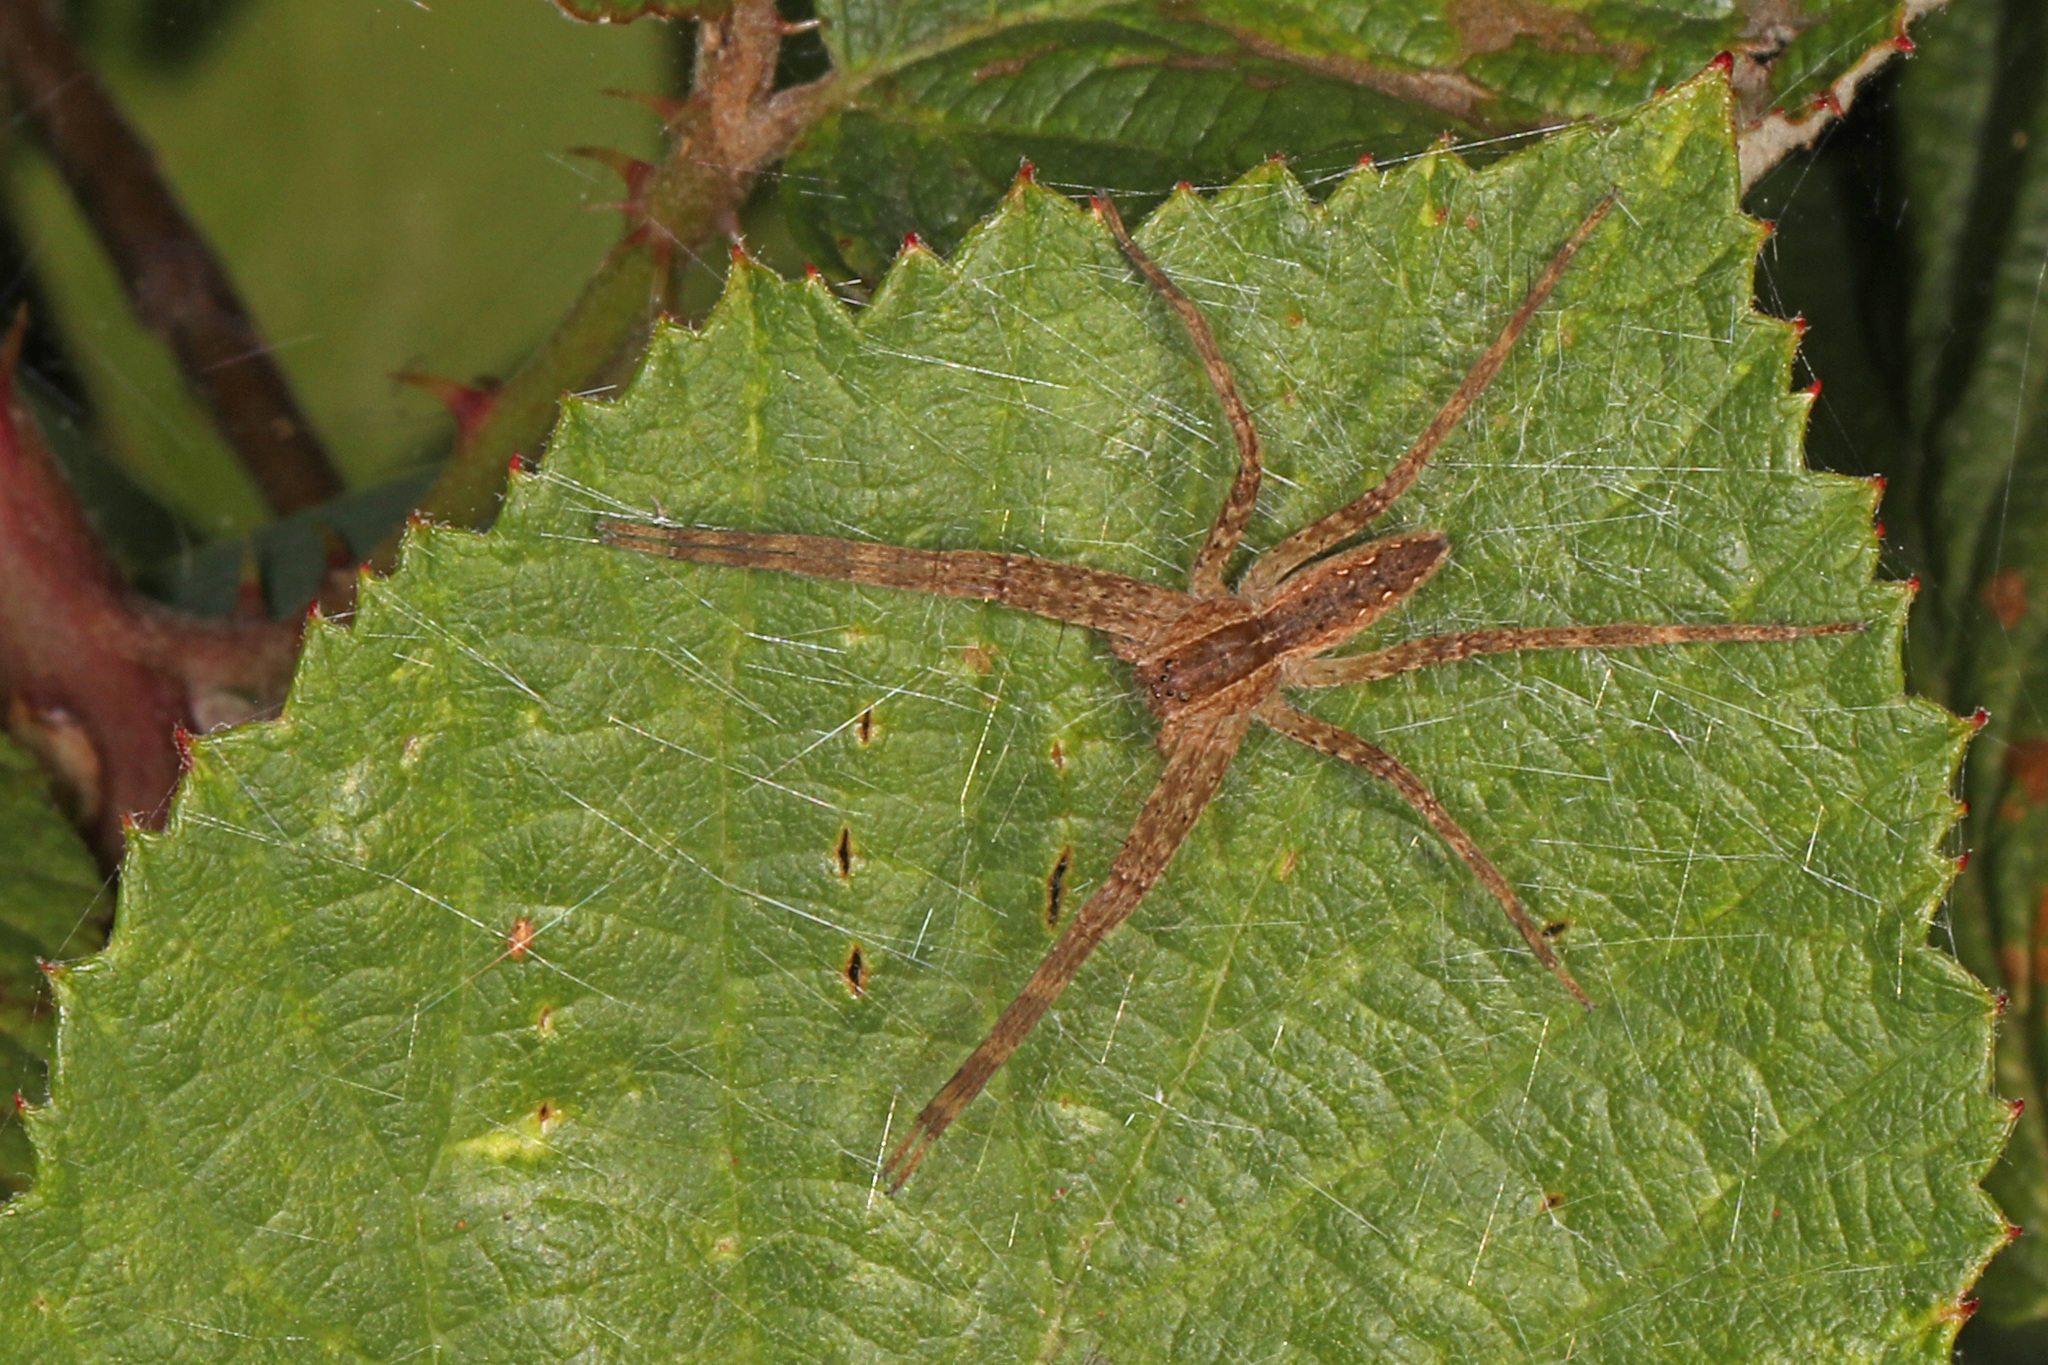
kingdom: Animalia
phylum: Arthropoda
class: Arachnida
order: Araneae
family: Pisauridae
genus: Pisaurina
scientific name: Pisaurina mira
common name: American nursery web spider
